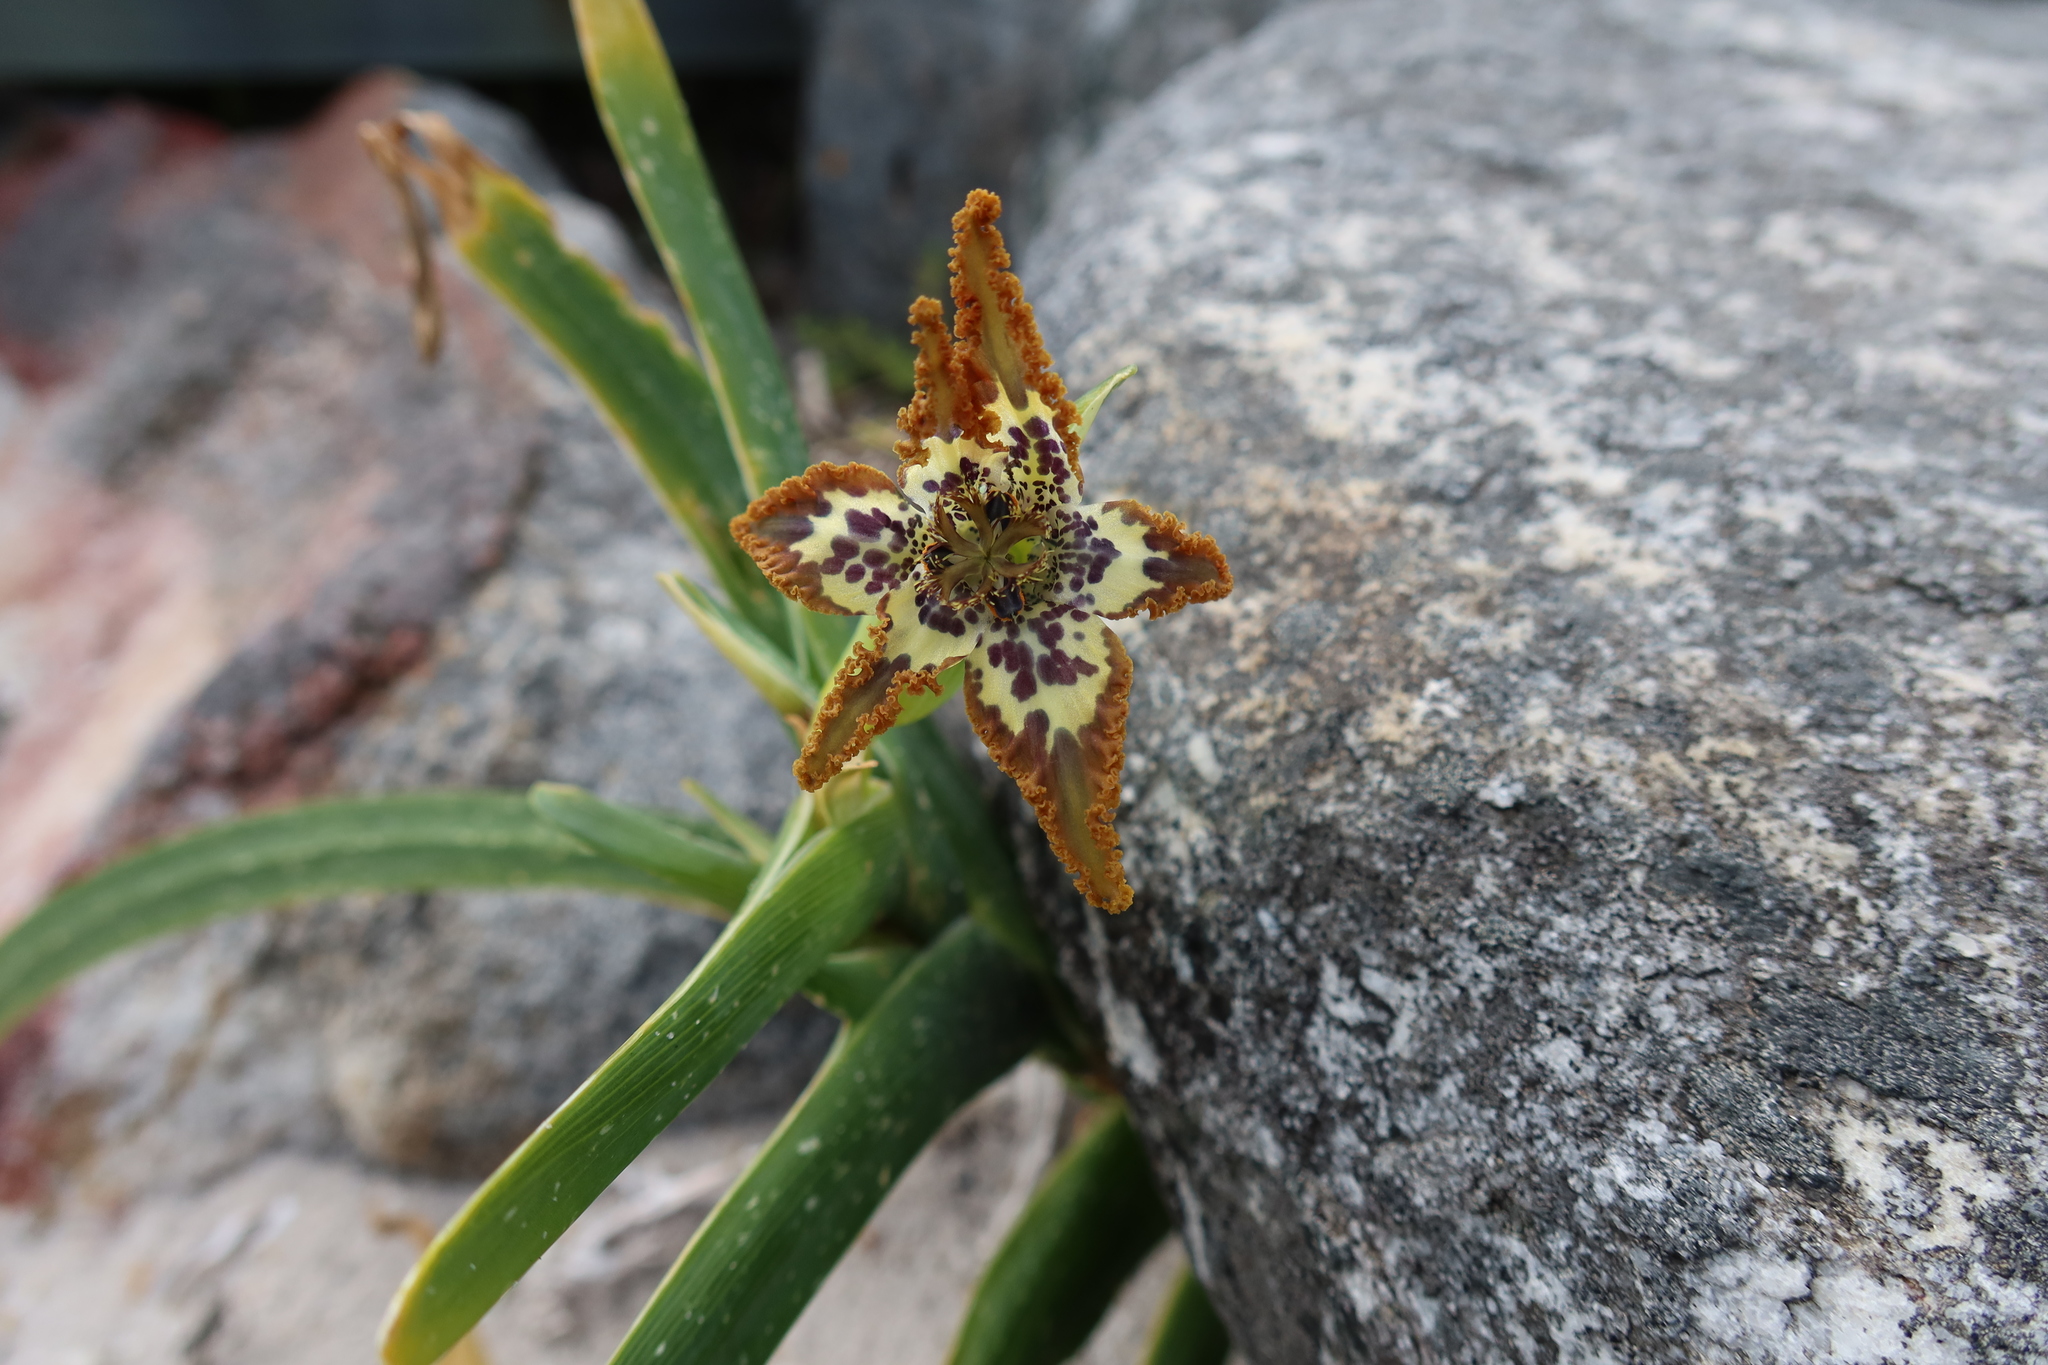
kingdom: Plantae
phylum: Tracheophyta
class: Liliopsida
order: Asparagales
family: Iridaceae
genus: Ferraria
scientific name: Ferraria crispa
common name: Black-flag
